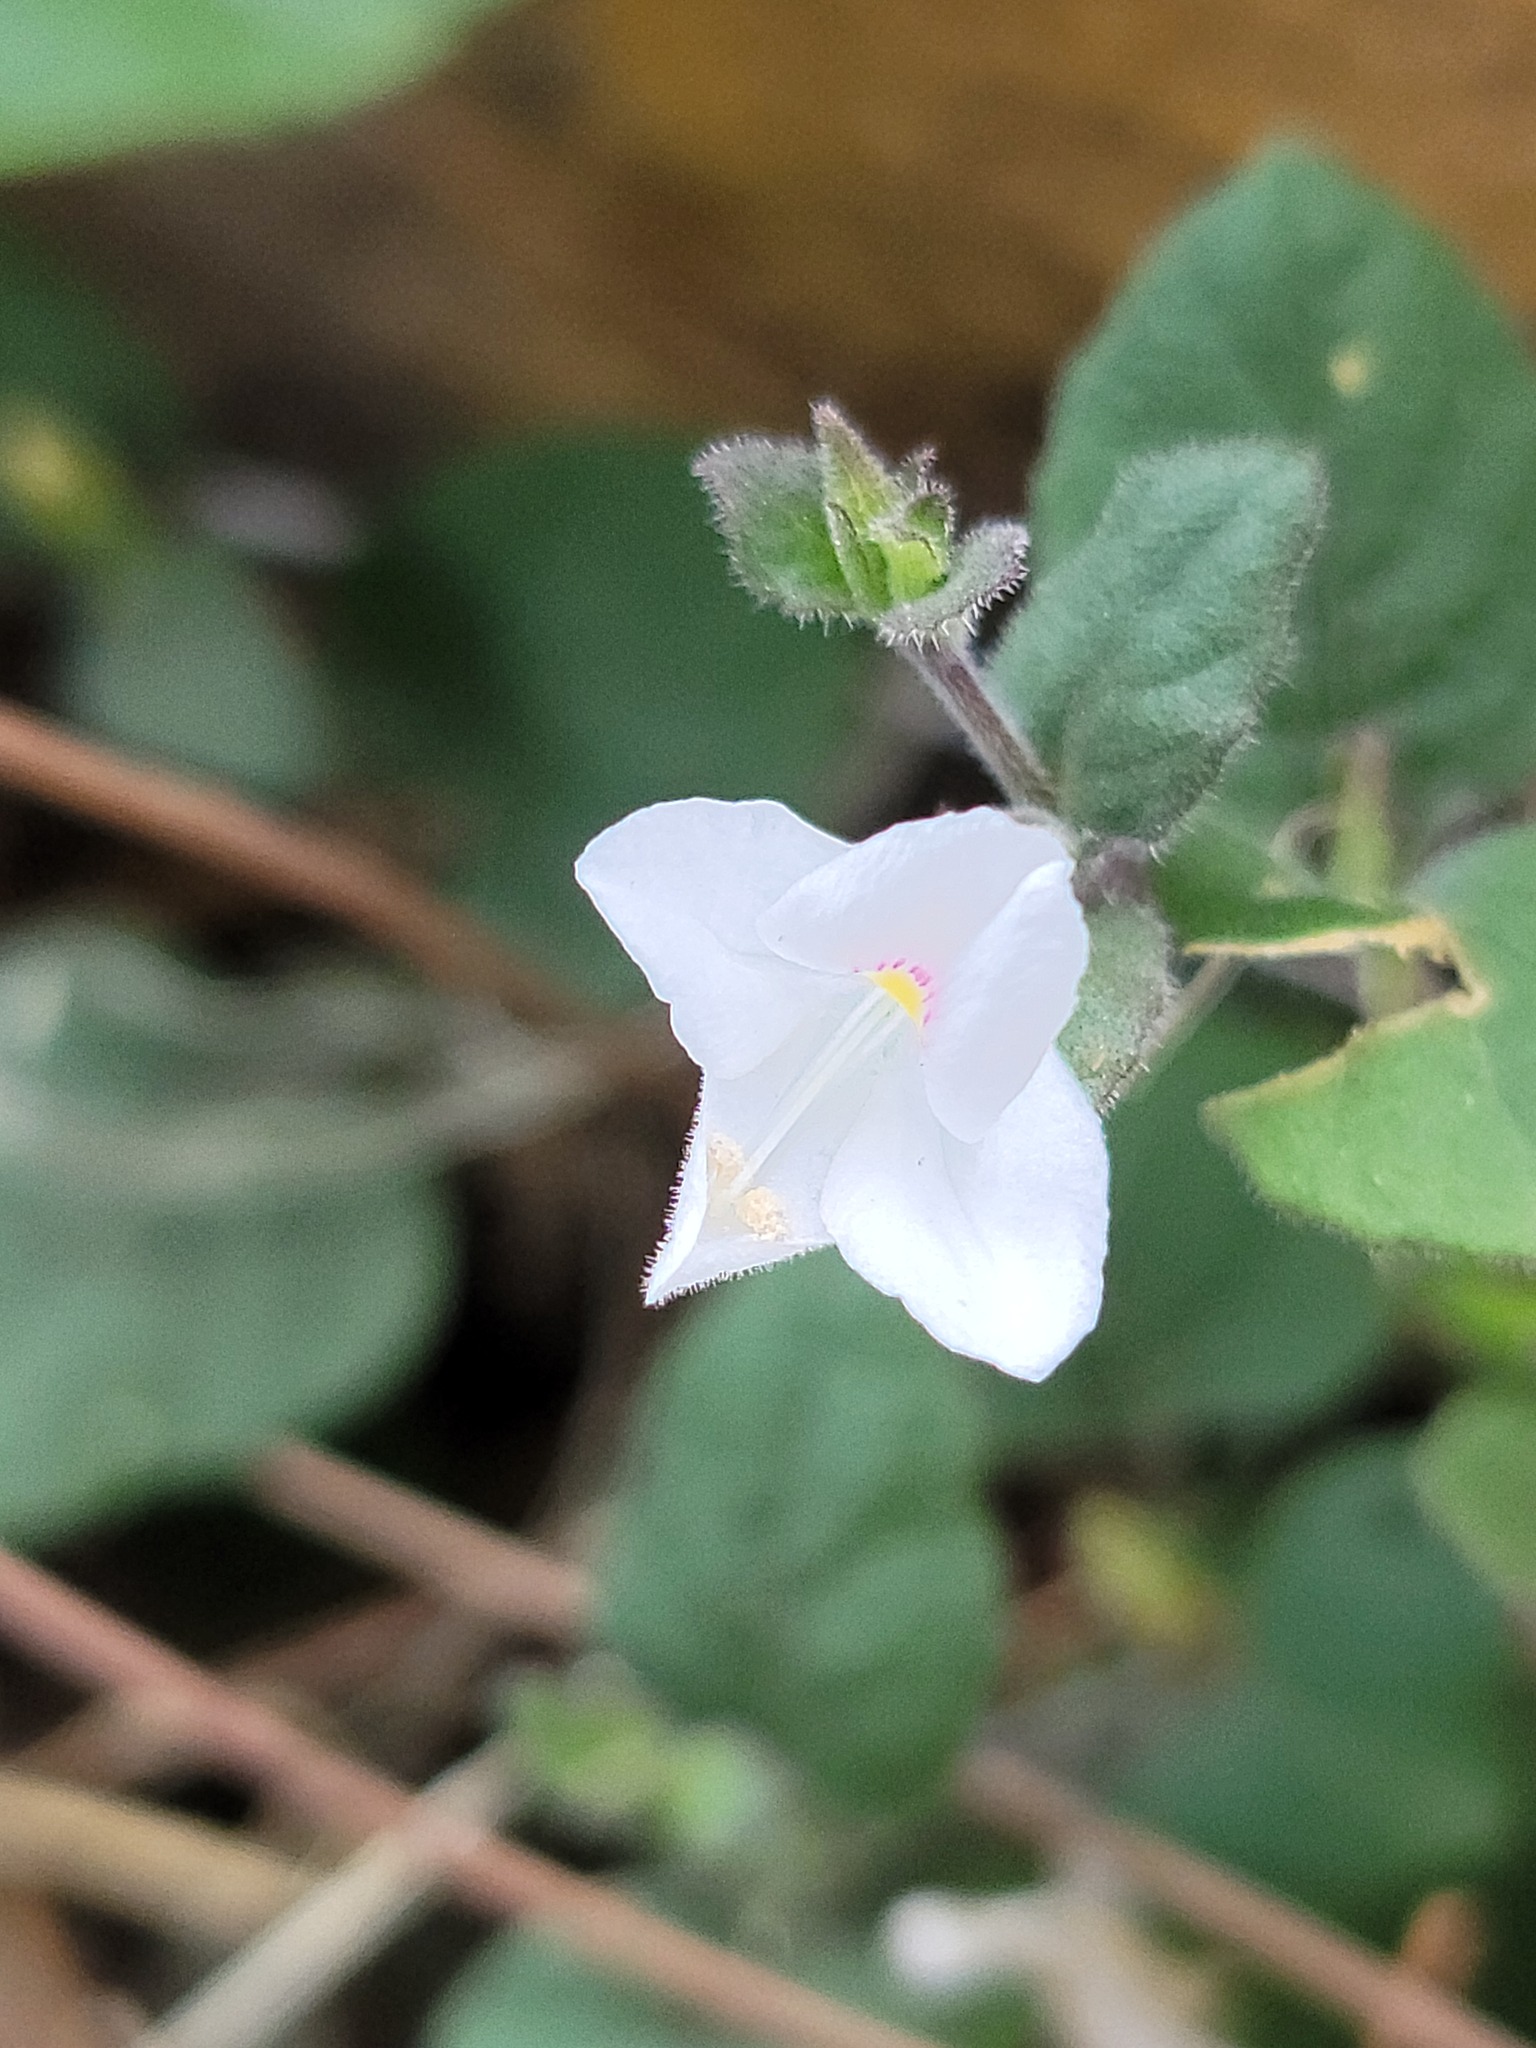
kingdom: Plantae
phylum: Tracheophyta
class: Magnoliopsida
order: Lamiales
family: Acanthaceae
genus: Carlowrightia
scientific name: Carlowrightia torreyana
